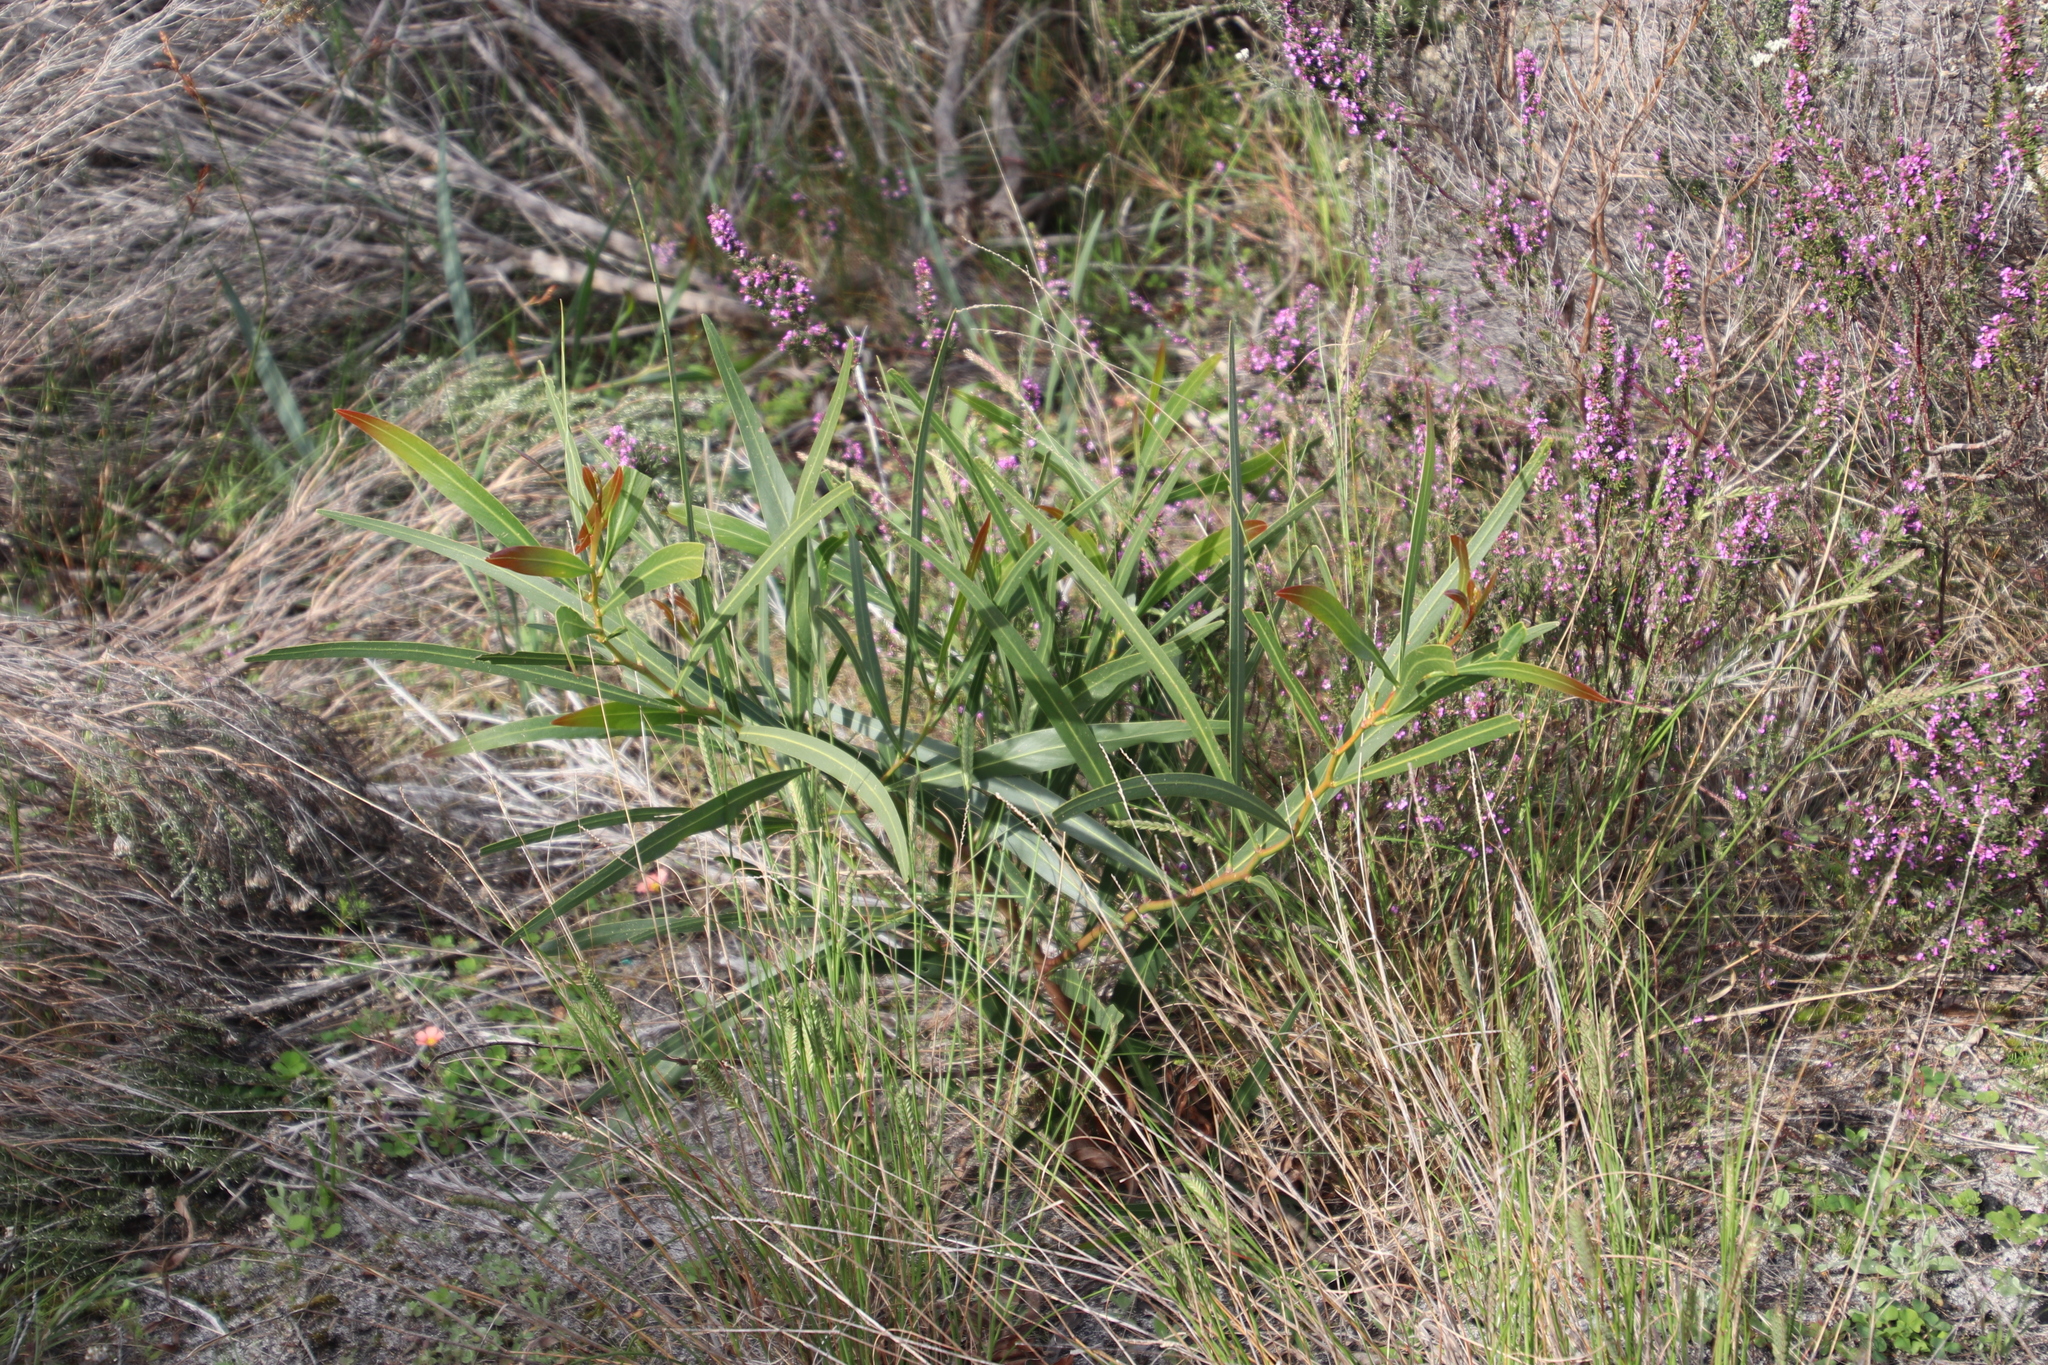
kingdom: Plantae
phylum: Tracheophyta
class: Magnoliopsida
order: Fabales
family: Fabaceae
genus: Acacia
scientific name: Acacia saligna
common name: Orange wattle
